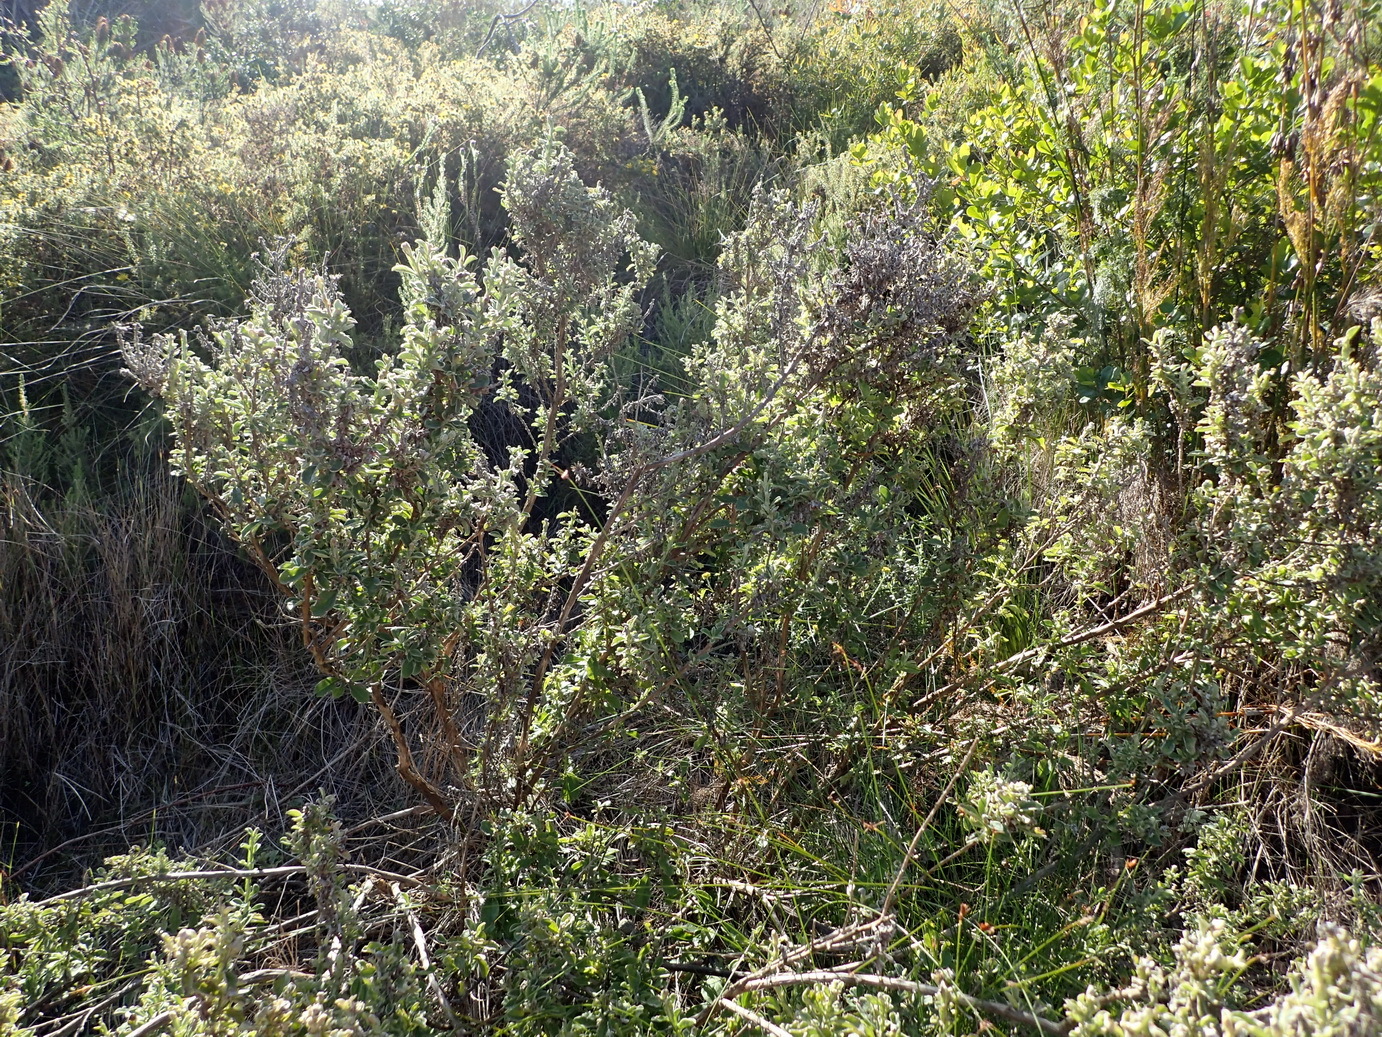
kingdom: Plantae
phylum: Tracheophyta
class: Magnoliopsida
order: Asterales
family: Asteraceae
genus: Printzia
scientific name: Printzia polifolia
